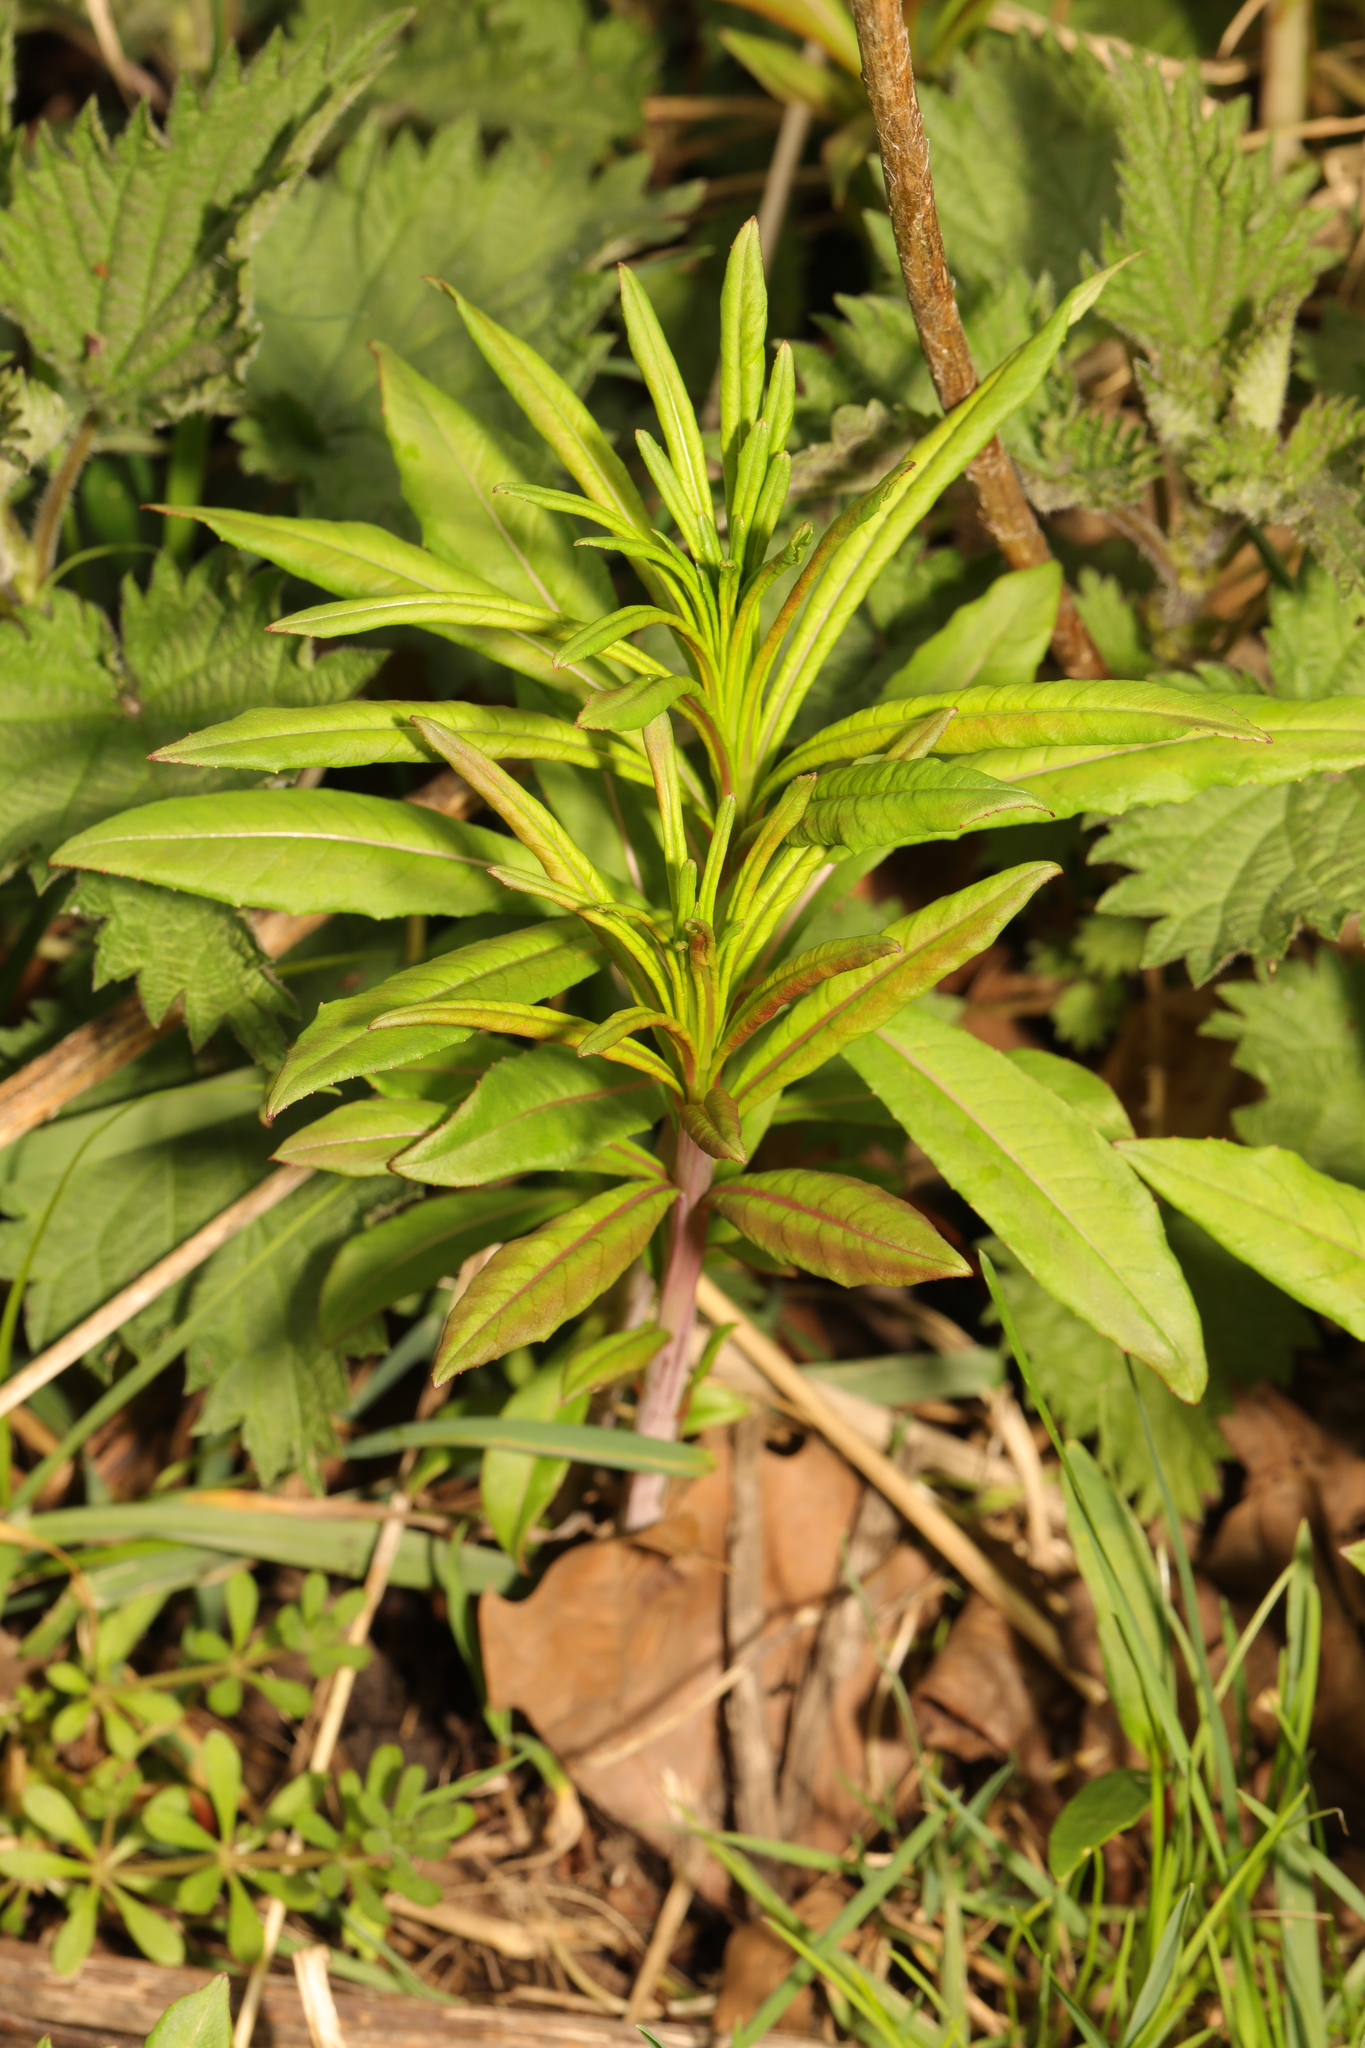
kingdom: Plantae
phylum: Tracheophyta
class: Magnoliopsida
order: Myrtales
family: Onagraceae
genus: Chamaenerion
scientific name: Chamaenerion angustifolium
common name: Fireweed
